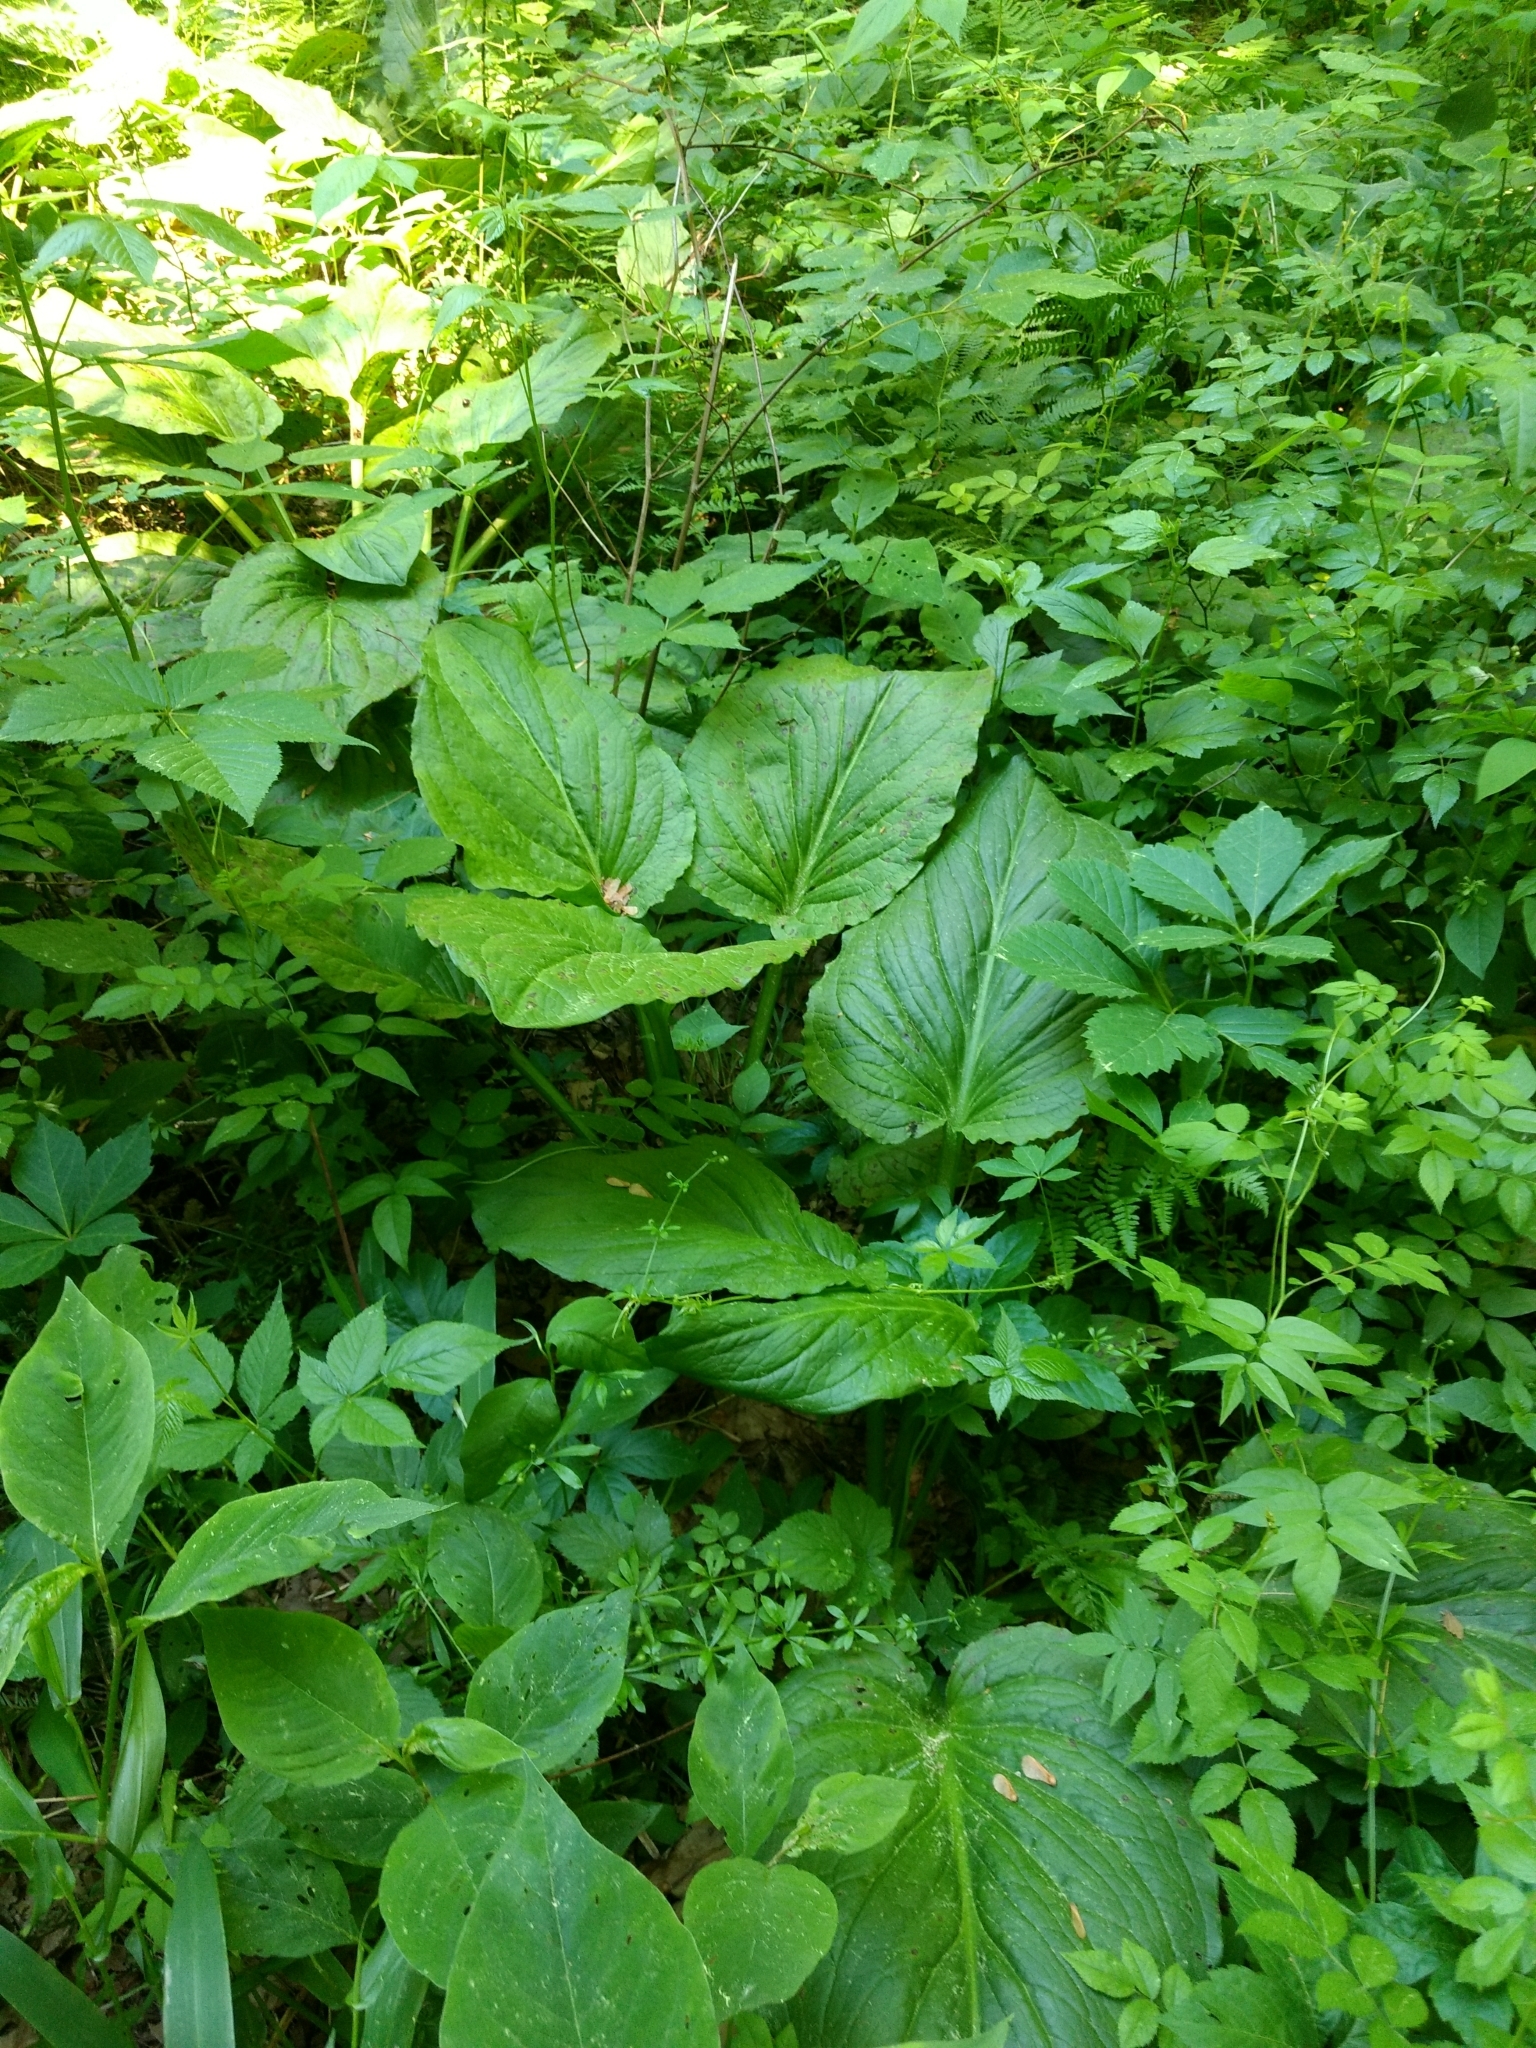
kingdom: Plantae
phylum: Tracheophyta
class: Liliopsida
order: Alismatales
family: Araceae
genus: Symplocarpus
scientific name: Symplocarpus foetidus
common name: Eastern skunk cabbage
